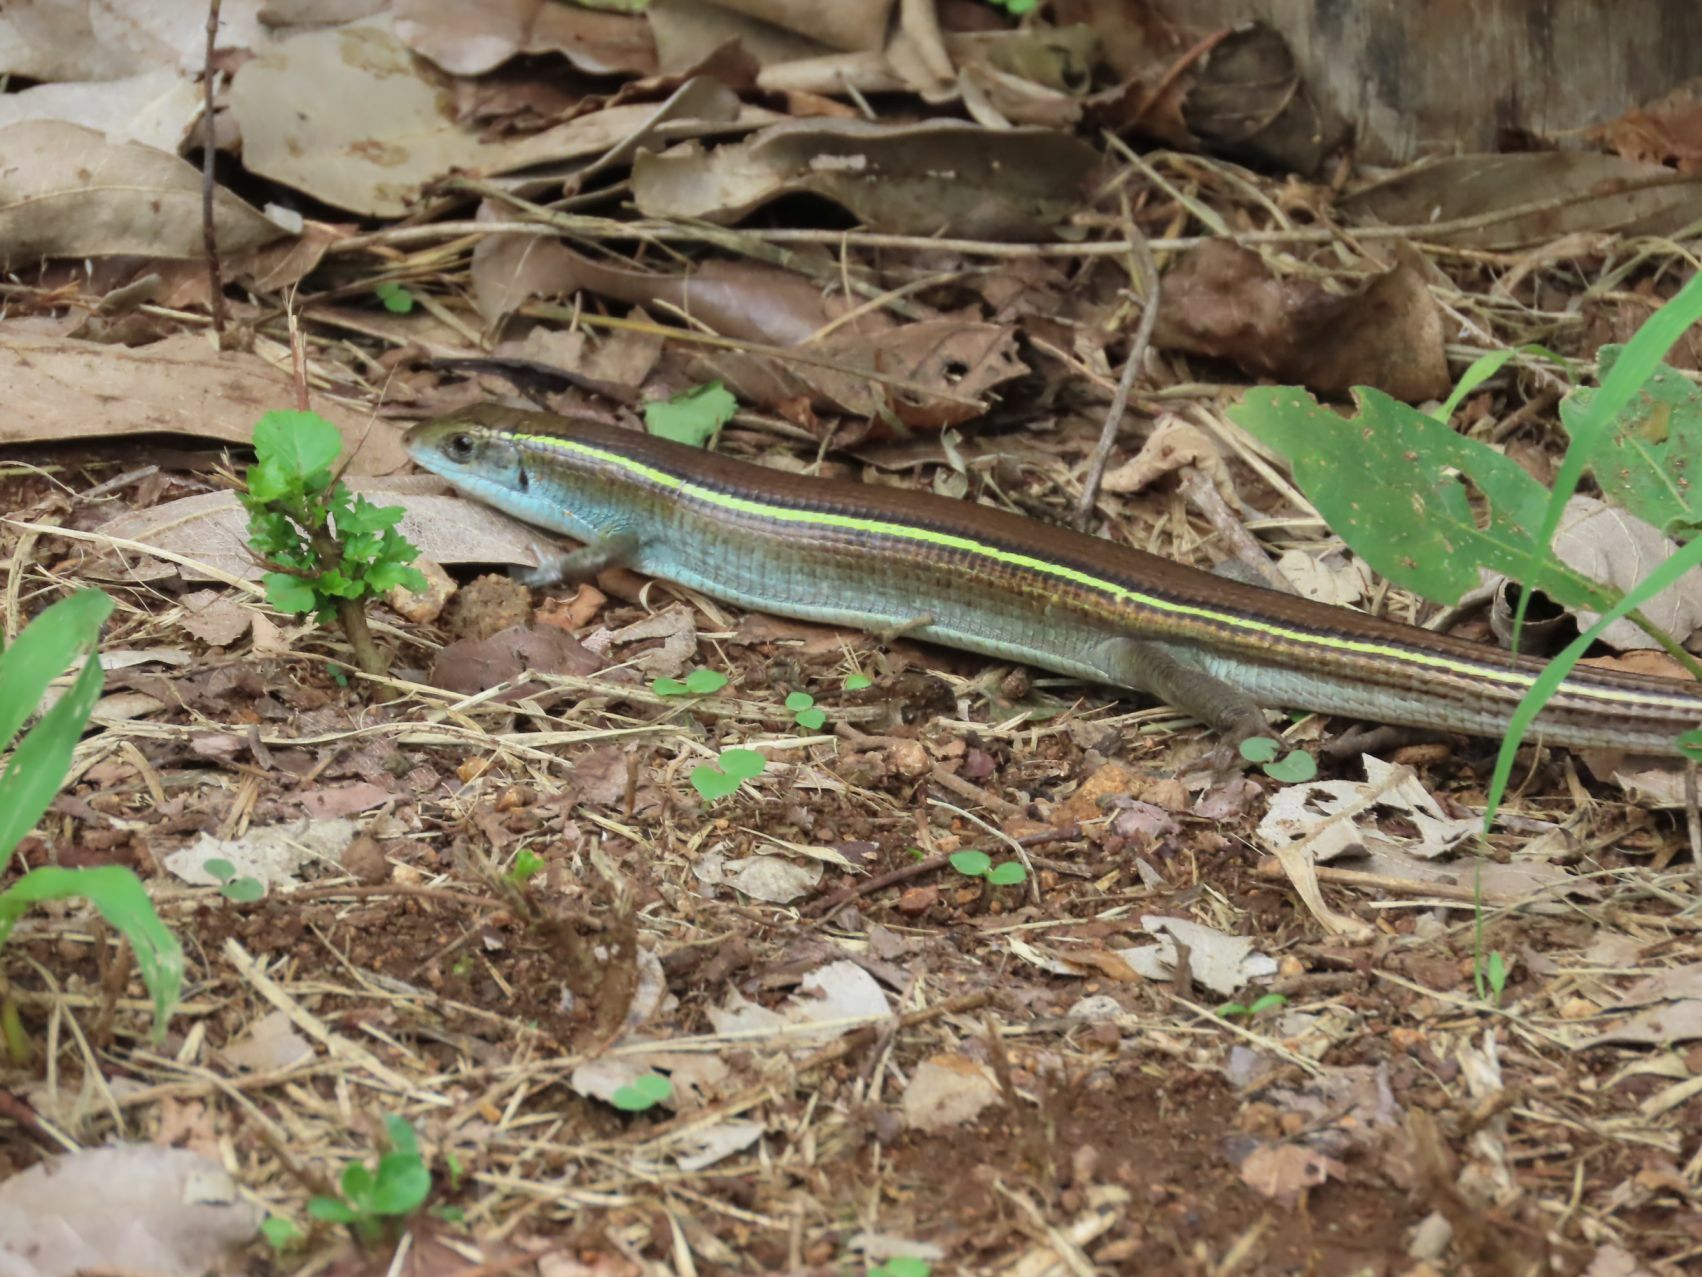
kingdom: Animalia
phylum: Chordata
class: Squamata
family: Gerrhosauridae
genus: Gerrhosaurus
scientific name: Gerrhosaurus flavigularis
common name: Yellow-throated plated lizard
